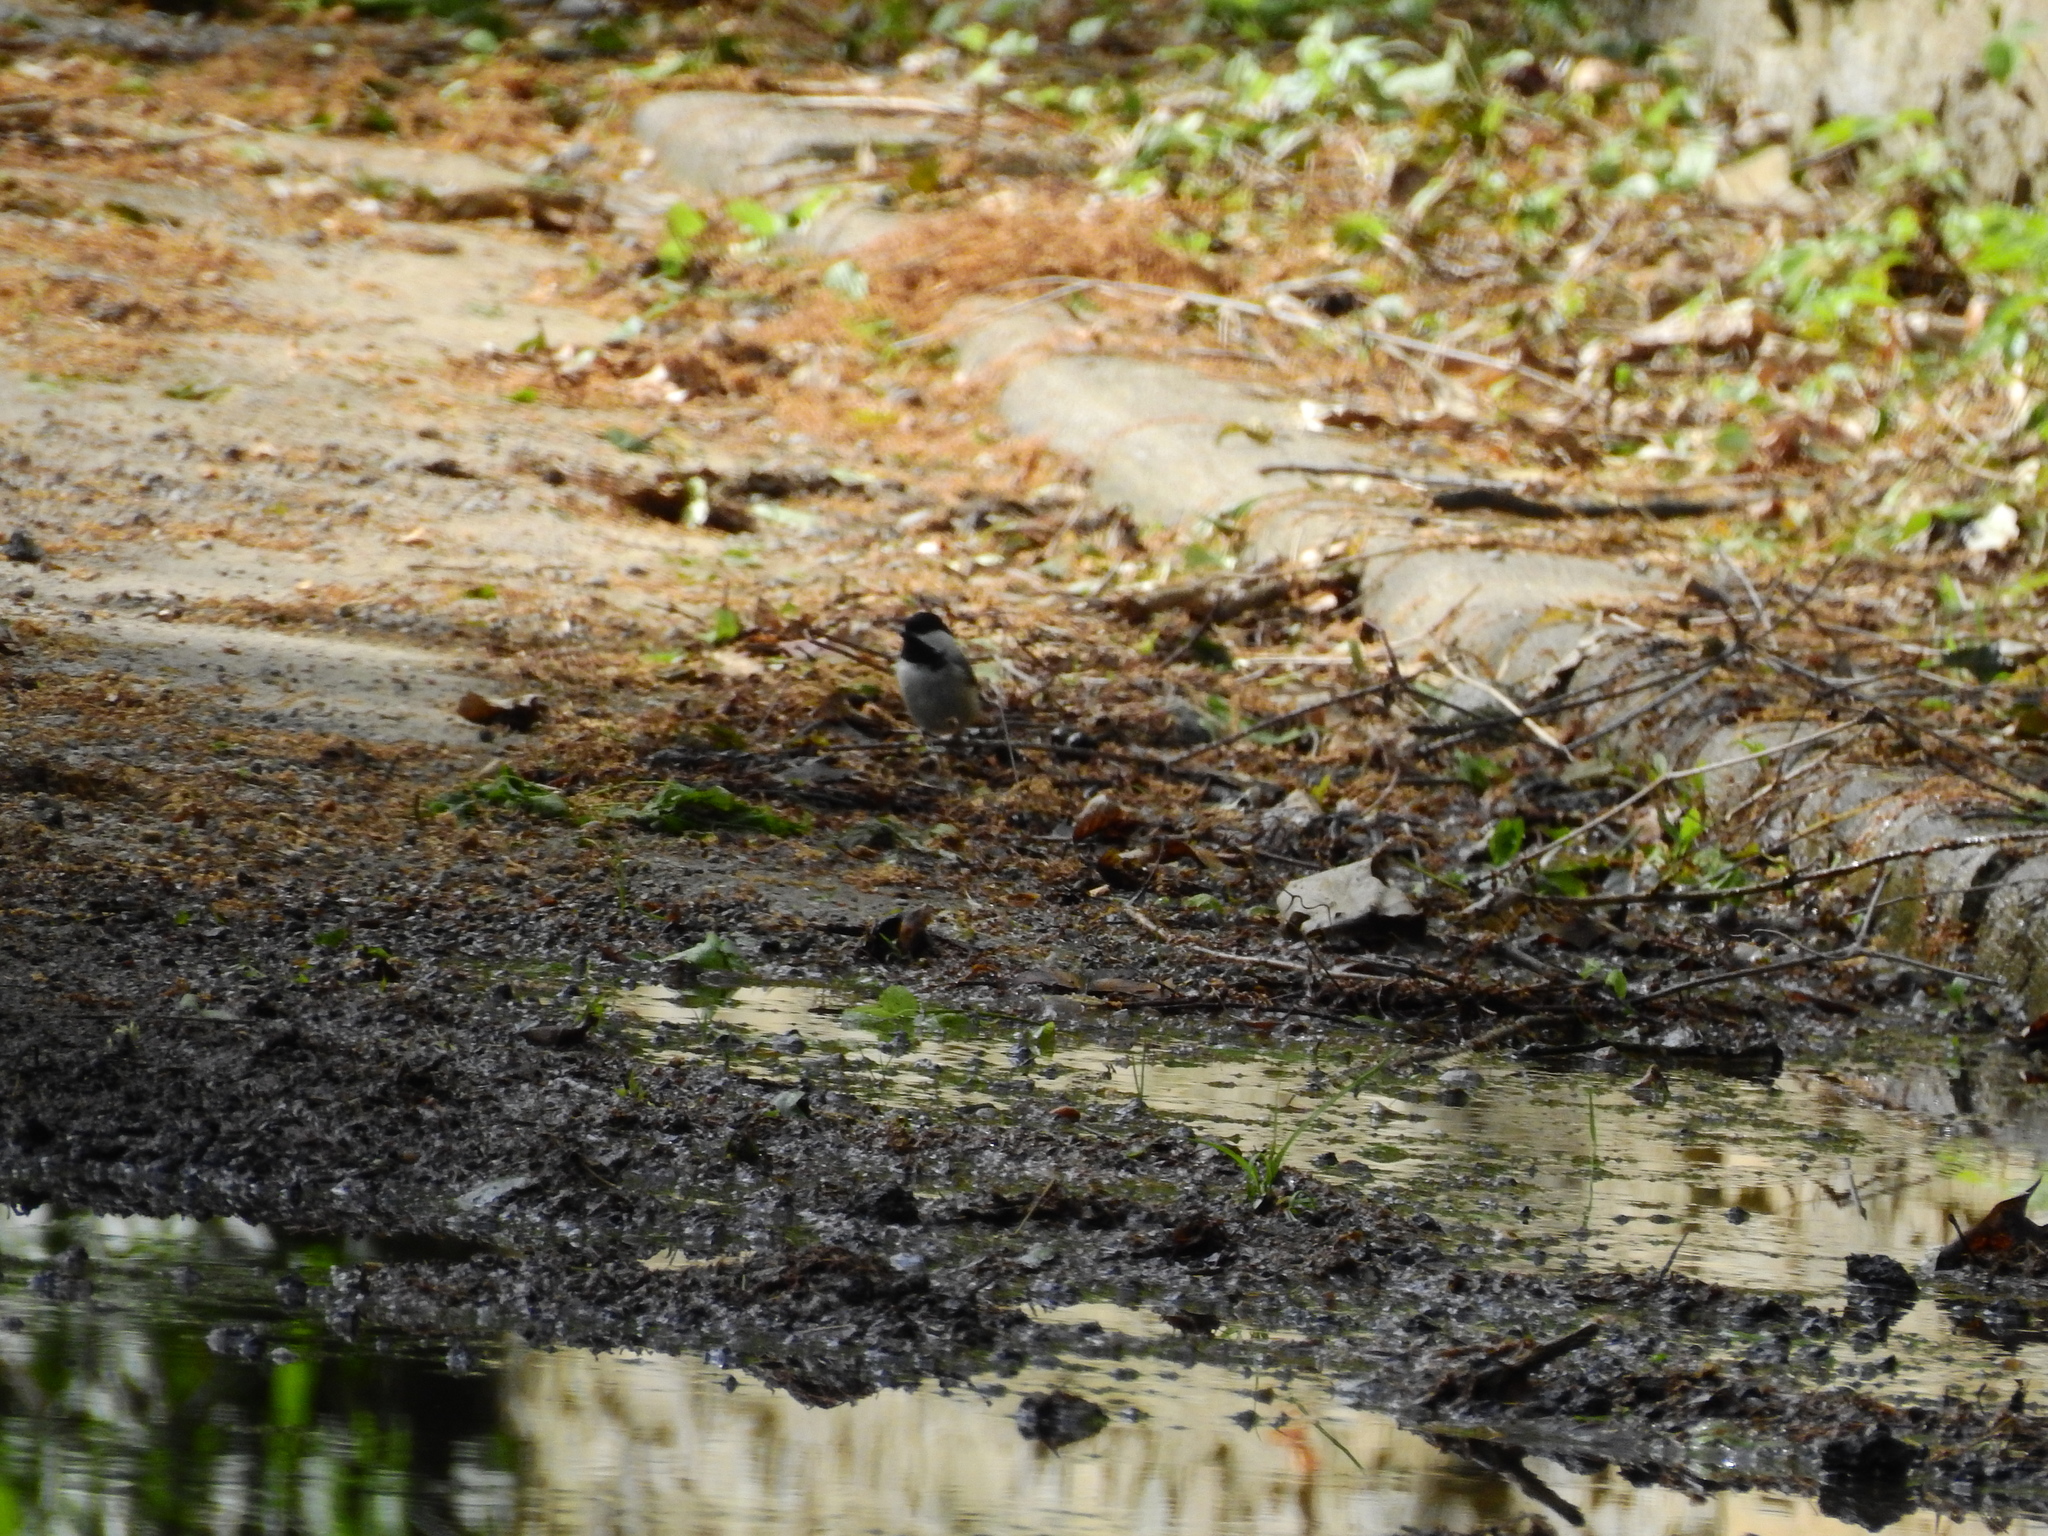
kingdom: Animalia
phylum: Chordata
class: Aves
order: Passeriformes
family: Paridae
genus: Poecile
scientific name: Poecile carolinensis
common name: Carolina chickadee
